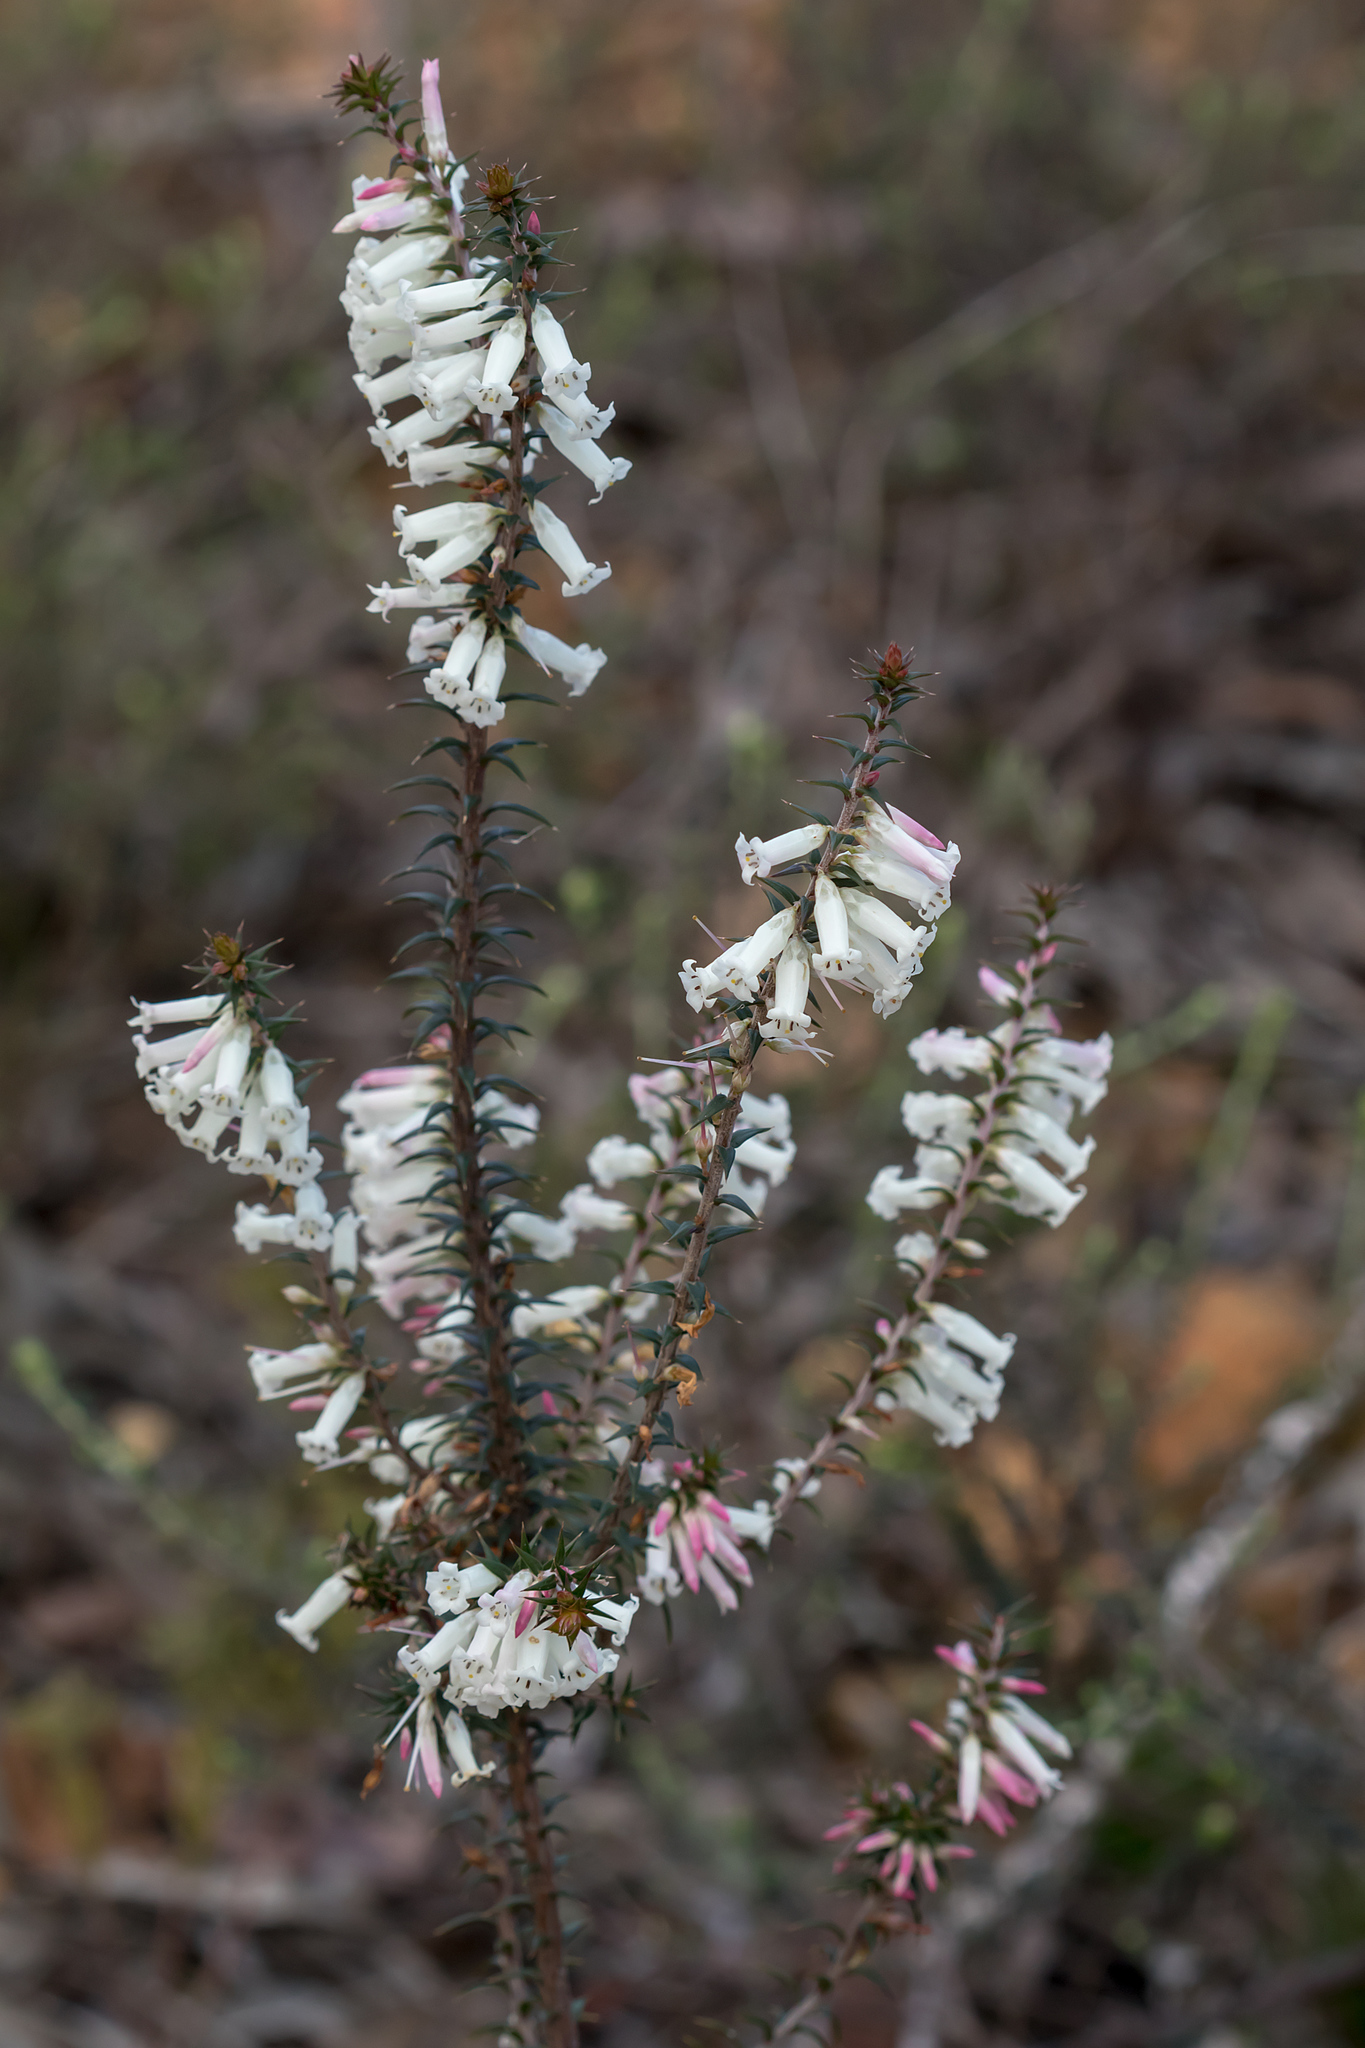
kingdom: Plantae
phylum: Tracheophyta
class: Magnoliopsida
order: Ericales
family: Ericaceae
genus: Epacris
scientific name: Epacris impressa
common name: Common-heath
